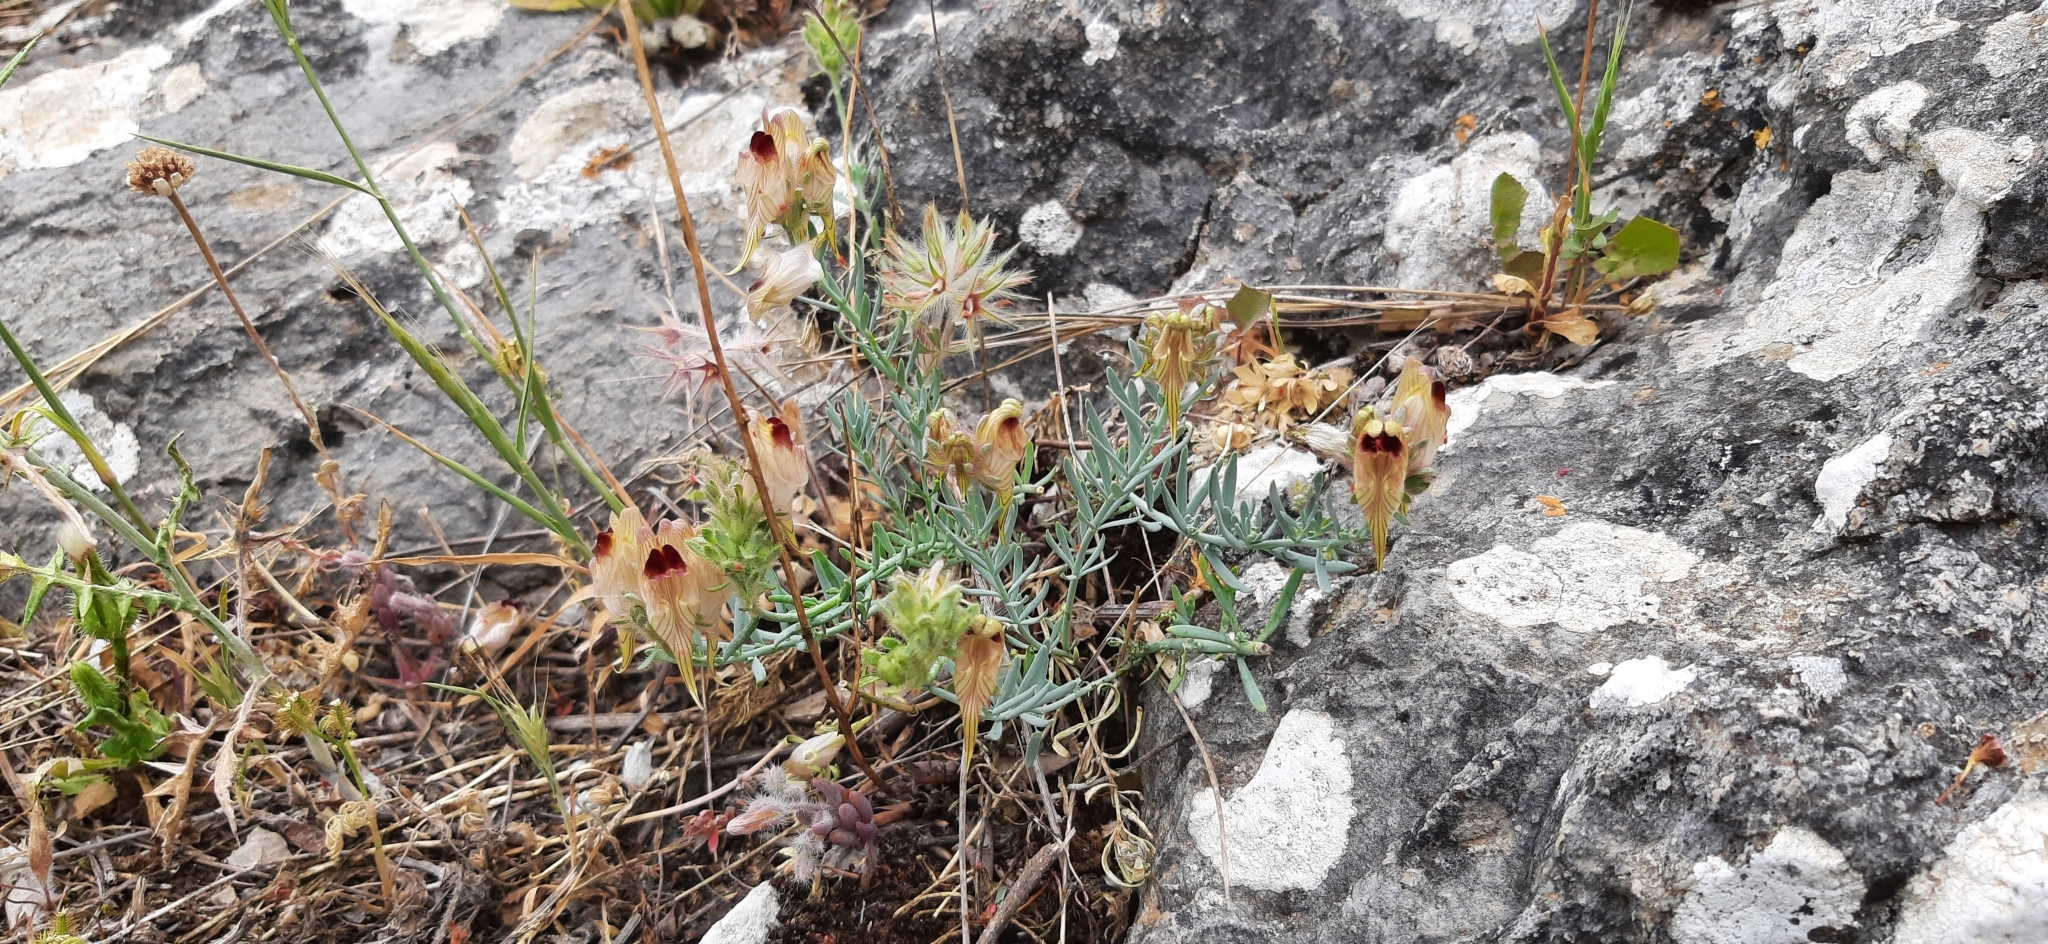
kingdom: Plantae
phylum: Tracheophyta
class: Magnoliopsida
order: Lamiales
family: Plantaginaceae
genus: Linaria
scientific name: Linaria tristis
